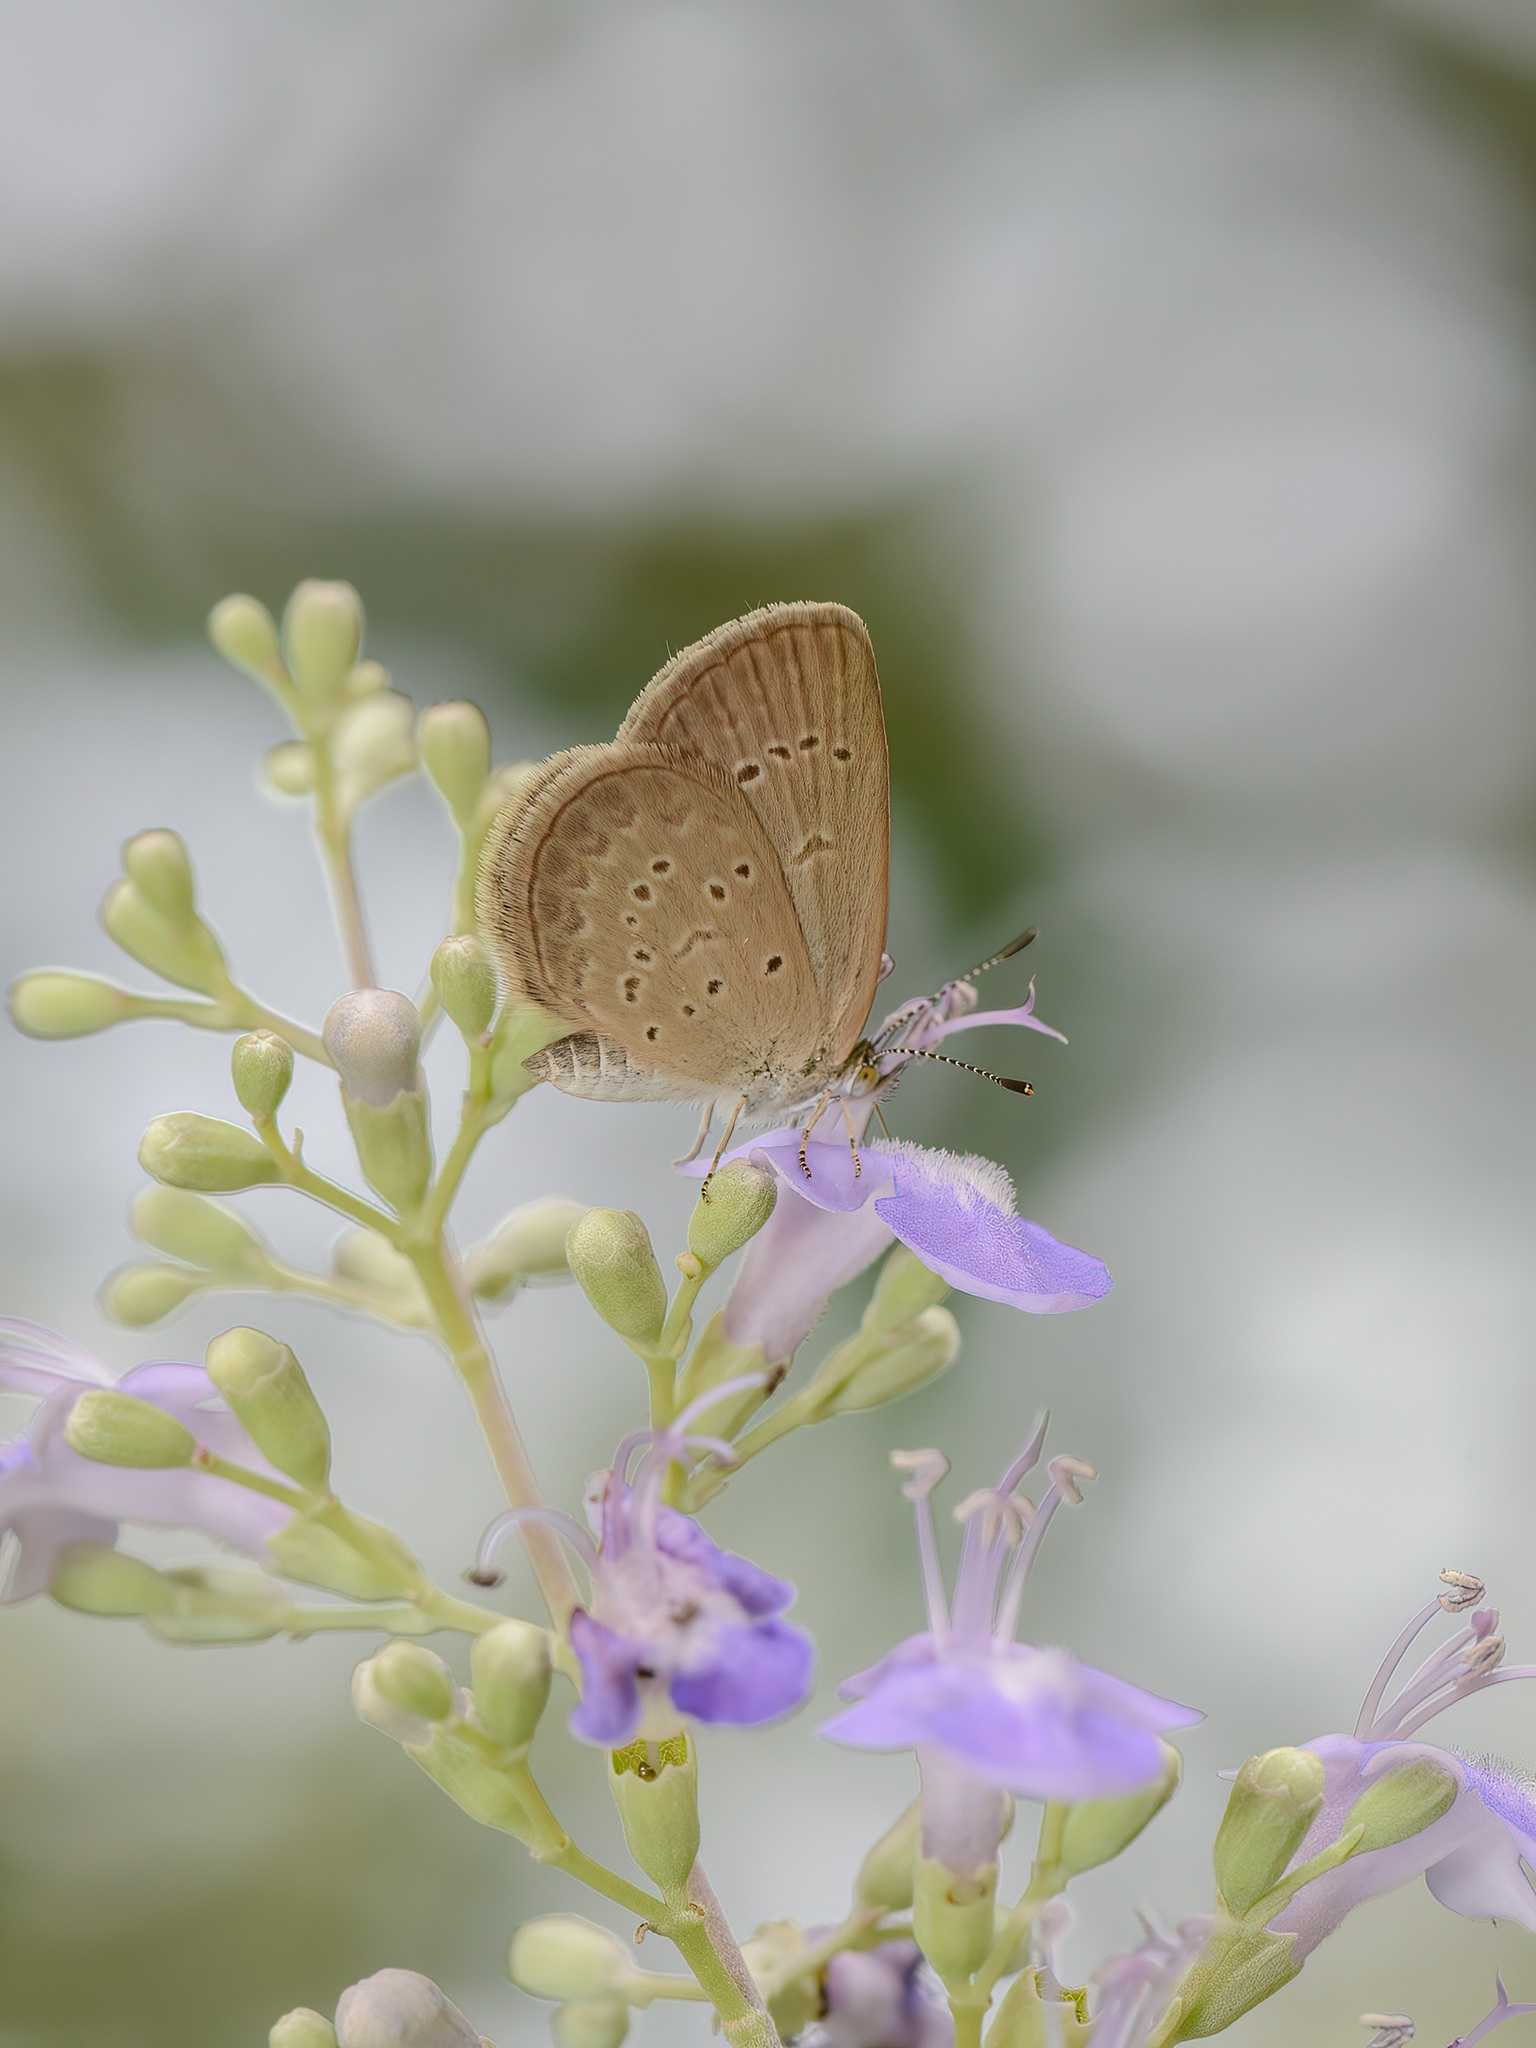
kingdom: Animalia
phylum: Arthropoda
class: Insecta
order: Lepidoptera
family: Lycaenidae
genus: Zizina
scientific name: Zizina otis
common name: Lesser grass blue
